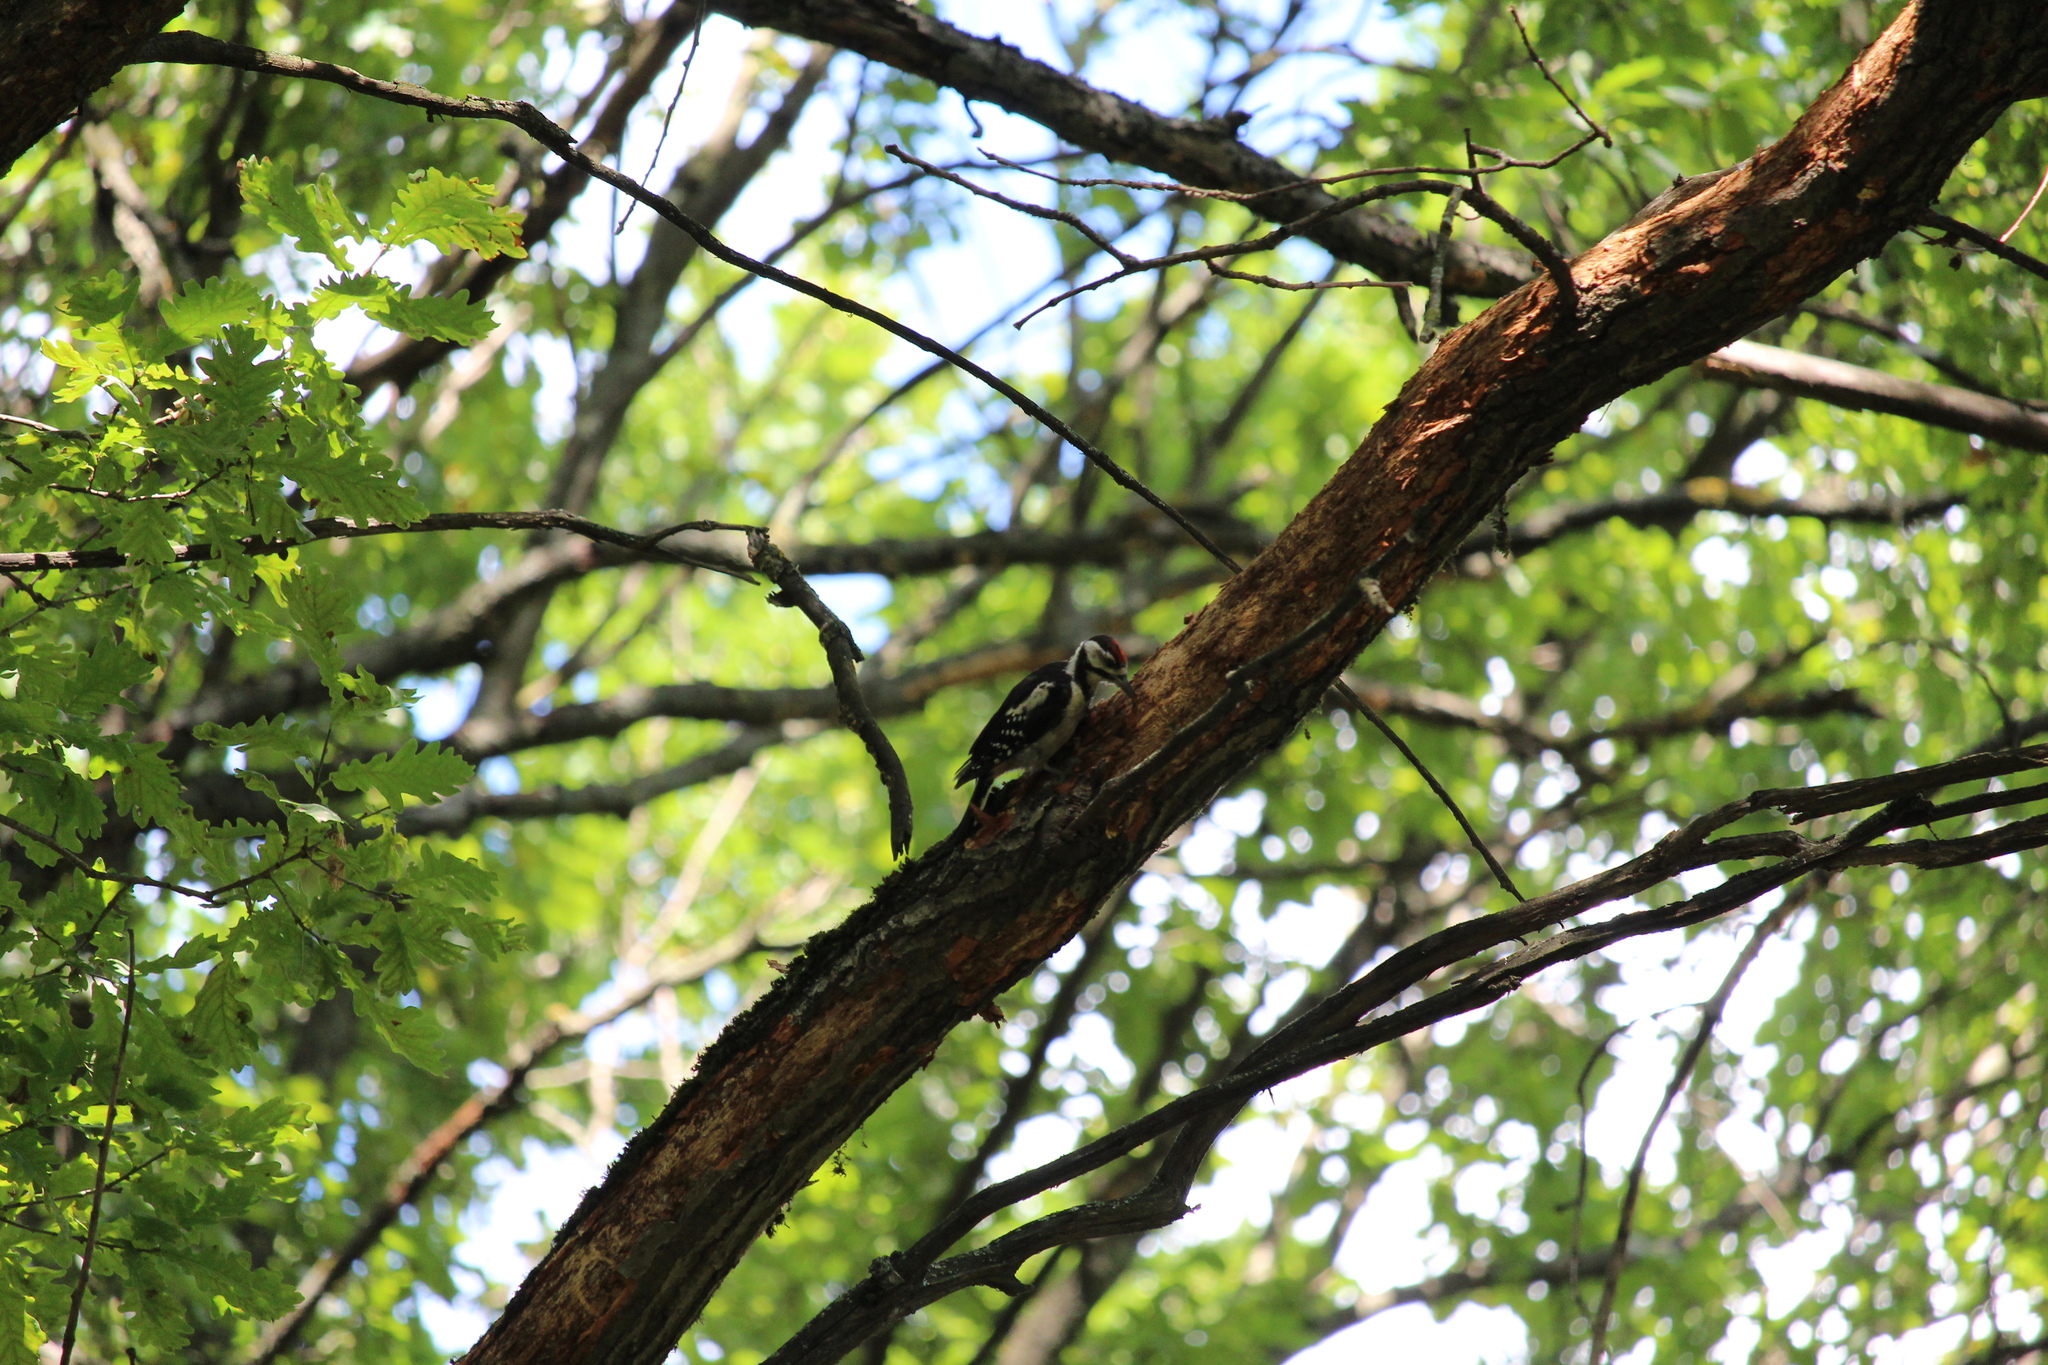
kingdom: Animalia
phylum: Chordata
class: Aves
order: Piciformes
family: Picidae
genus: Dendrocopos
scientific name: Dendrocopos major
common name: Great spotted woodpecker
